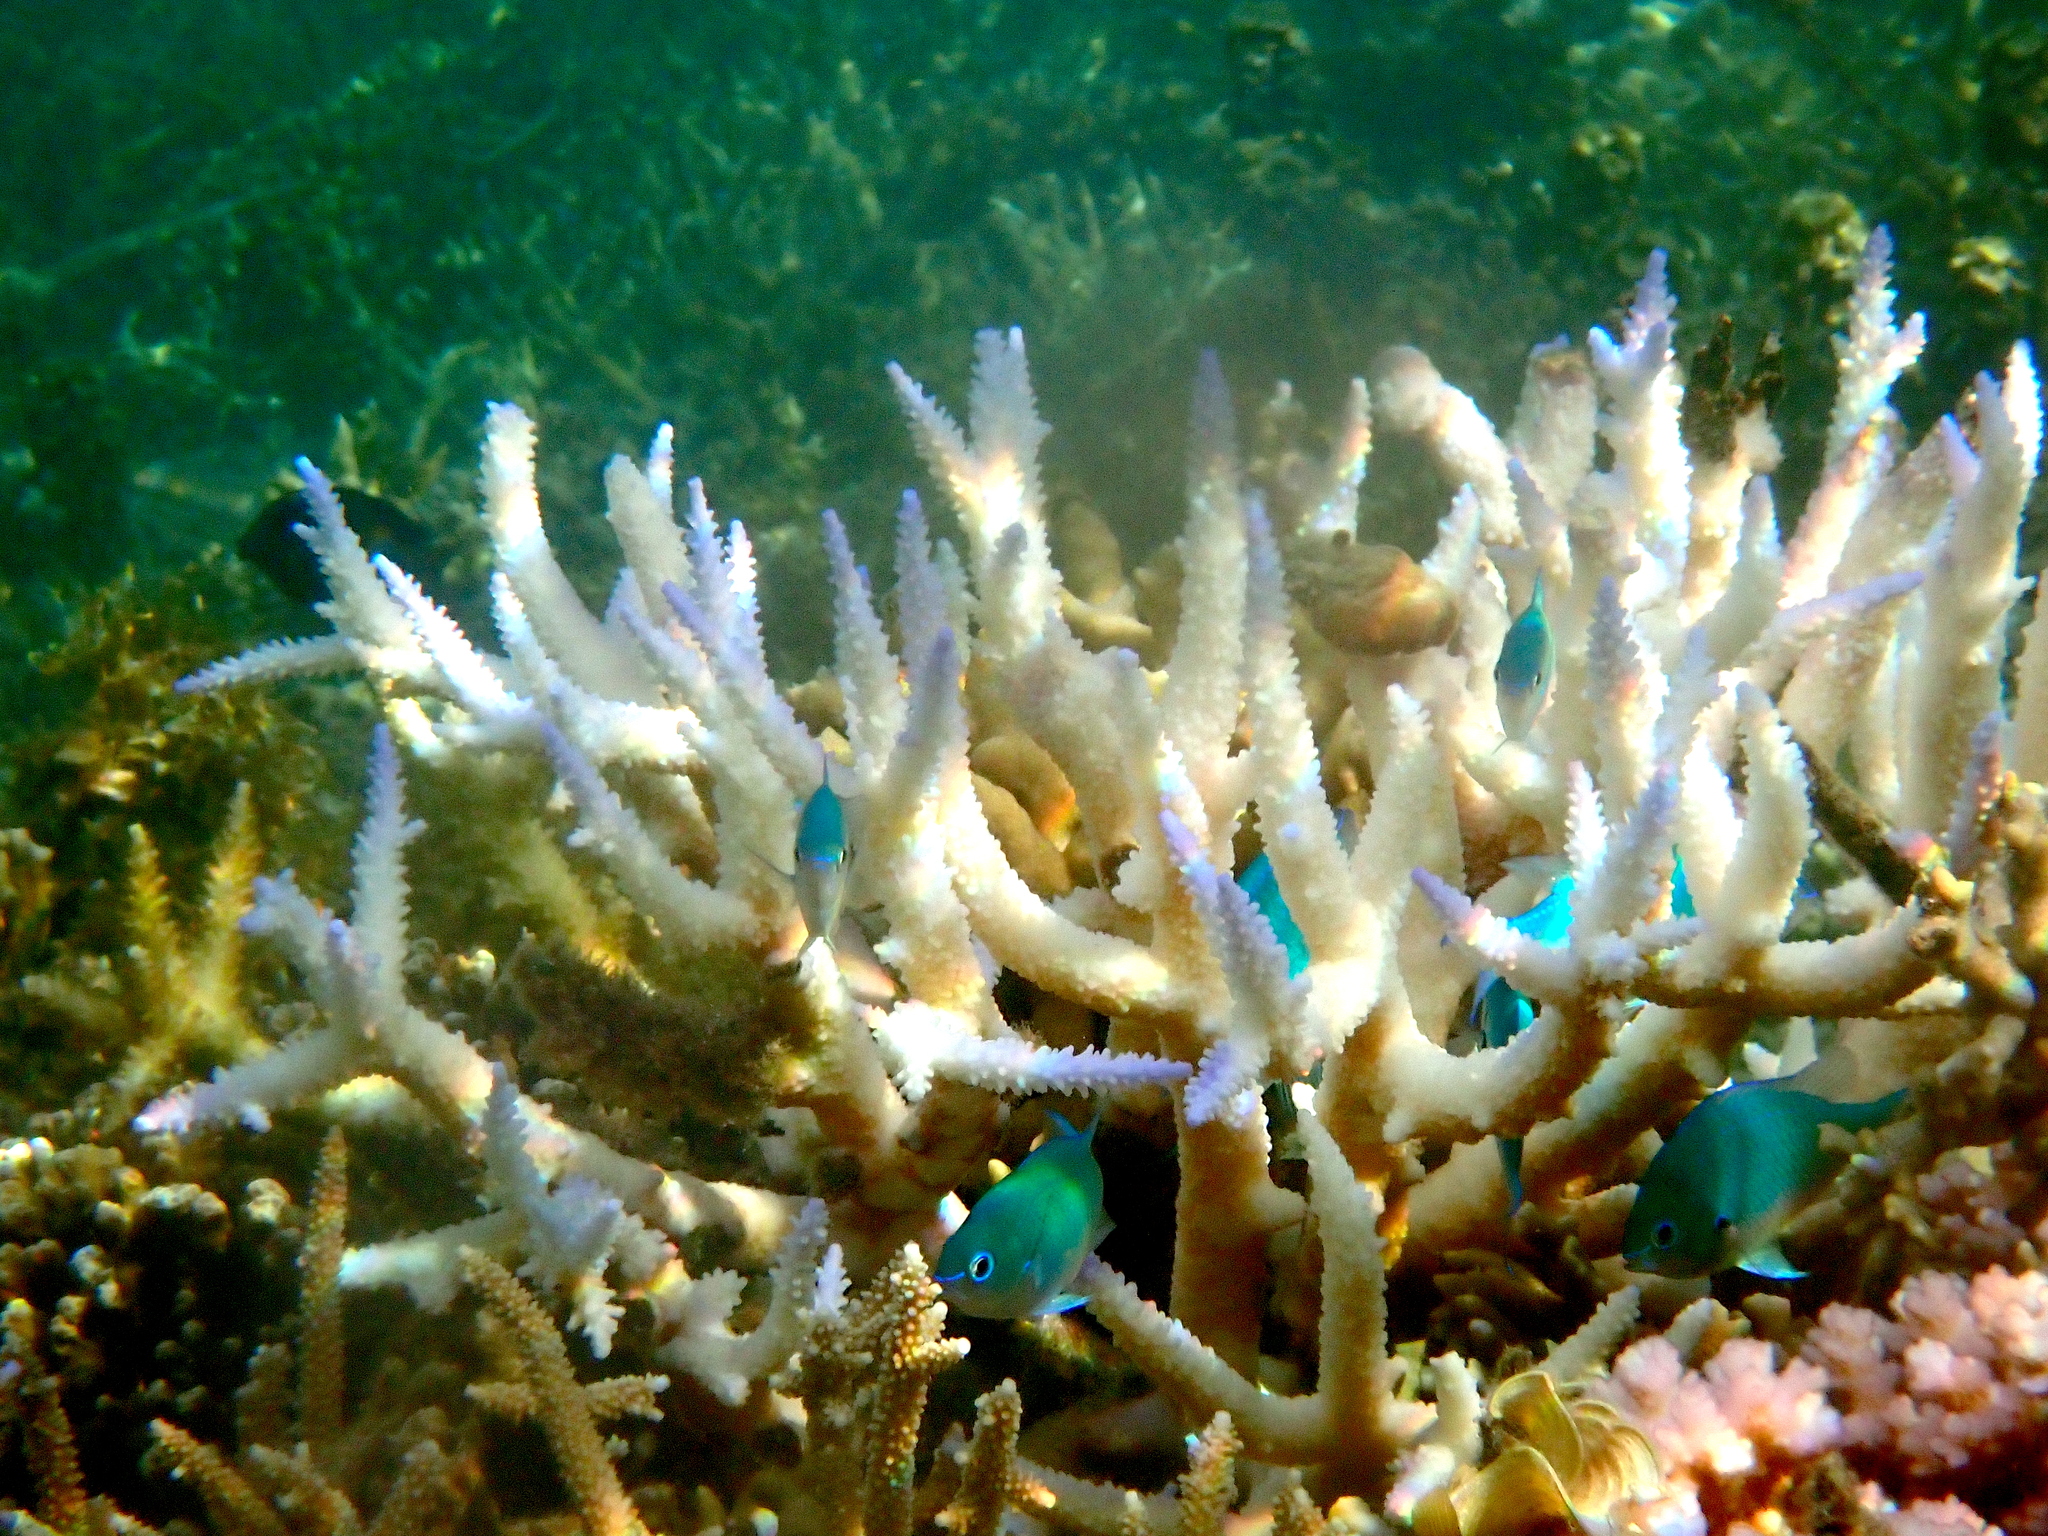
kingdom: Animalia
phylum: Chordata
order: Perciformes
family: Pomacentridae
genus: Chromis
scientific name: Chromis viridis
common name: Blue-green chromis
